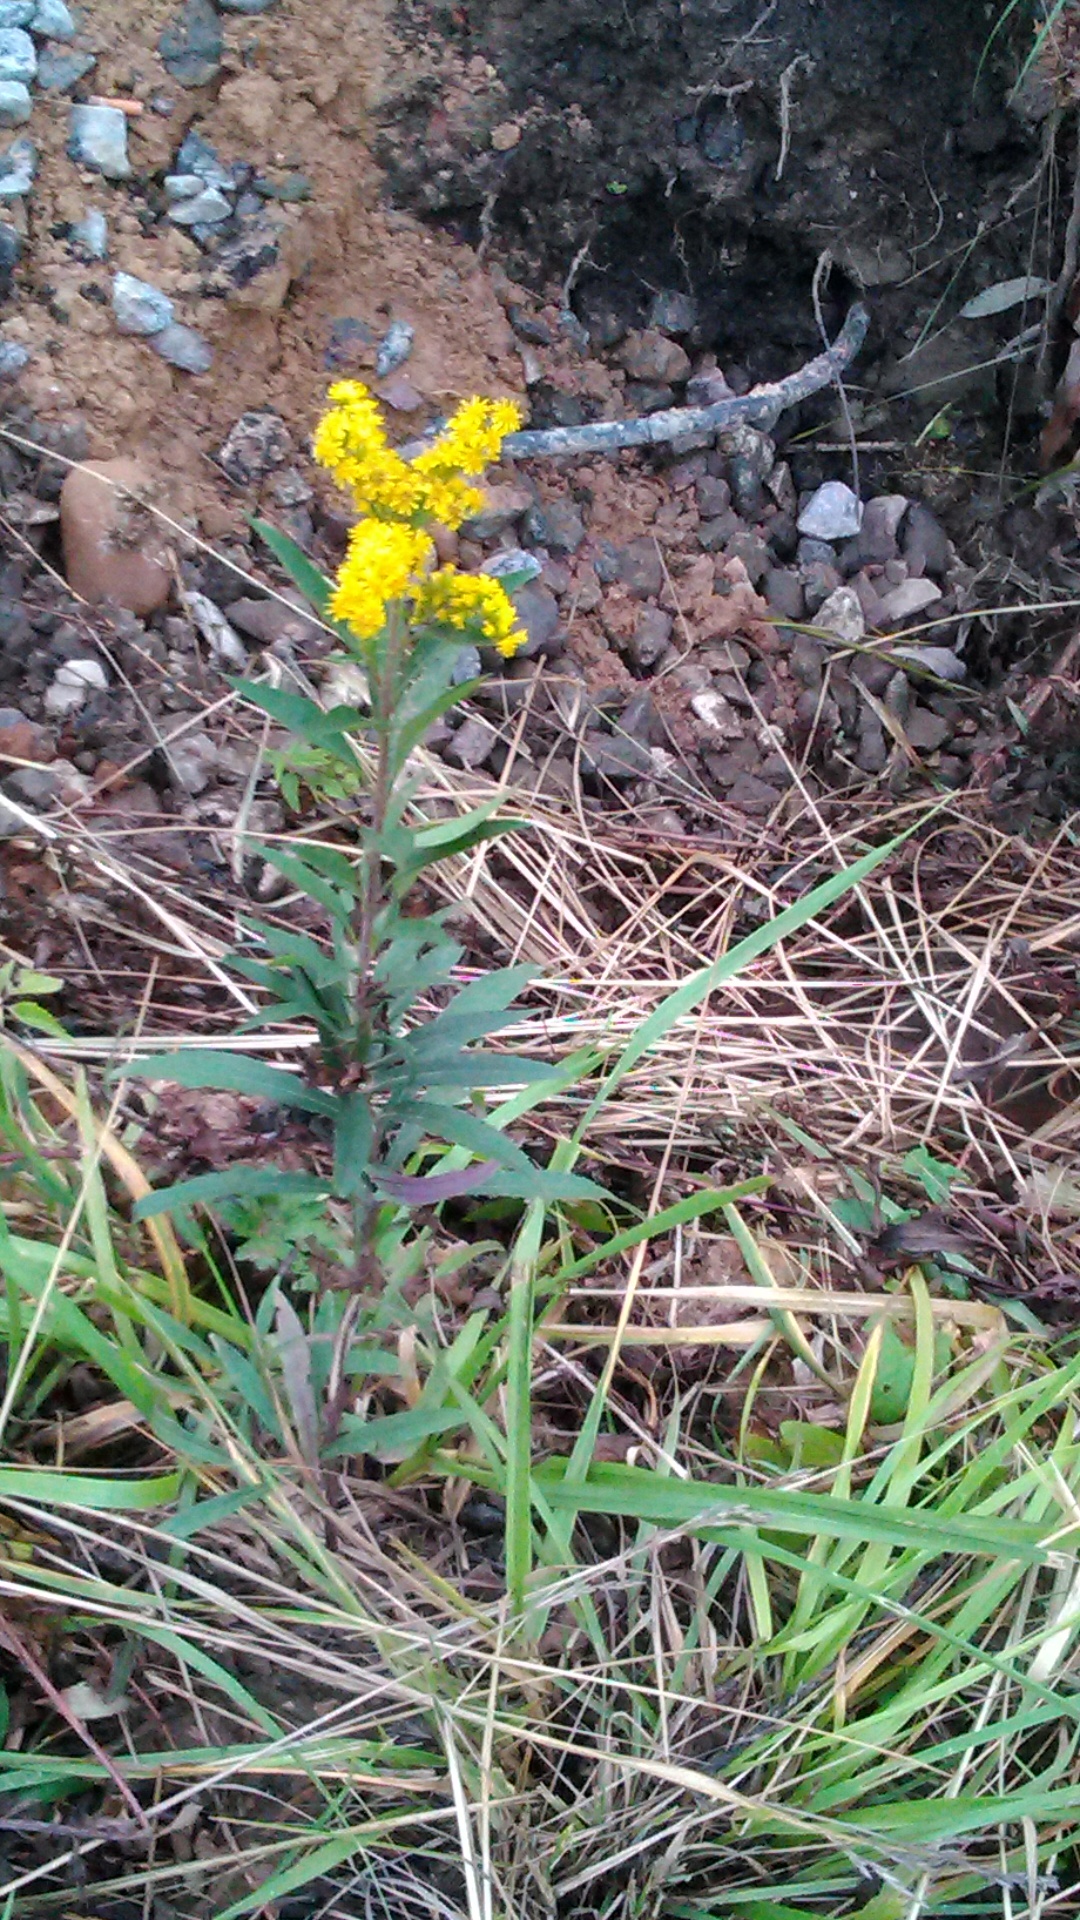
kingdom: Plantae
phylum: Tracheophyta
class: Magnoliopsida
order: Asterales
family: Asteraceae
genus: Solidago
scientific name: Solidago gigantea
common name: Giant goldenrod
